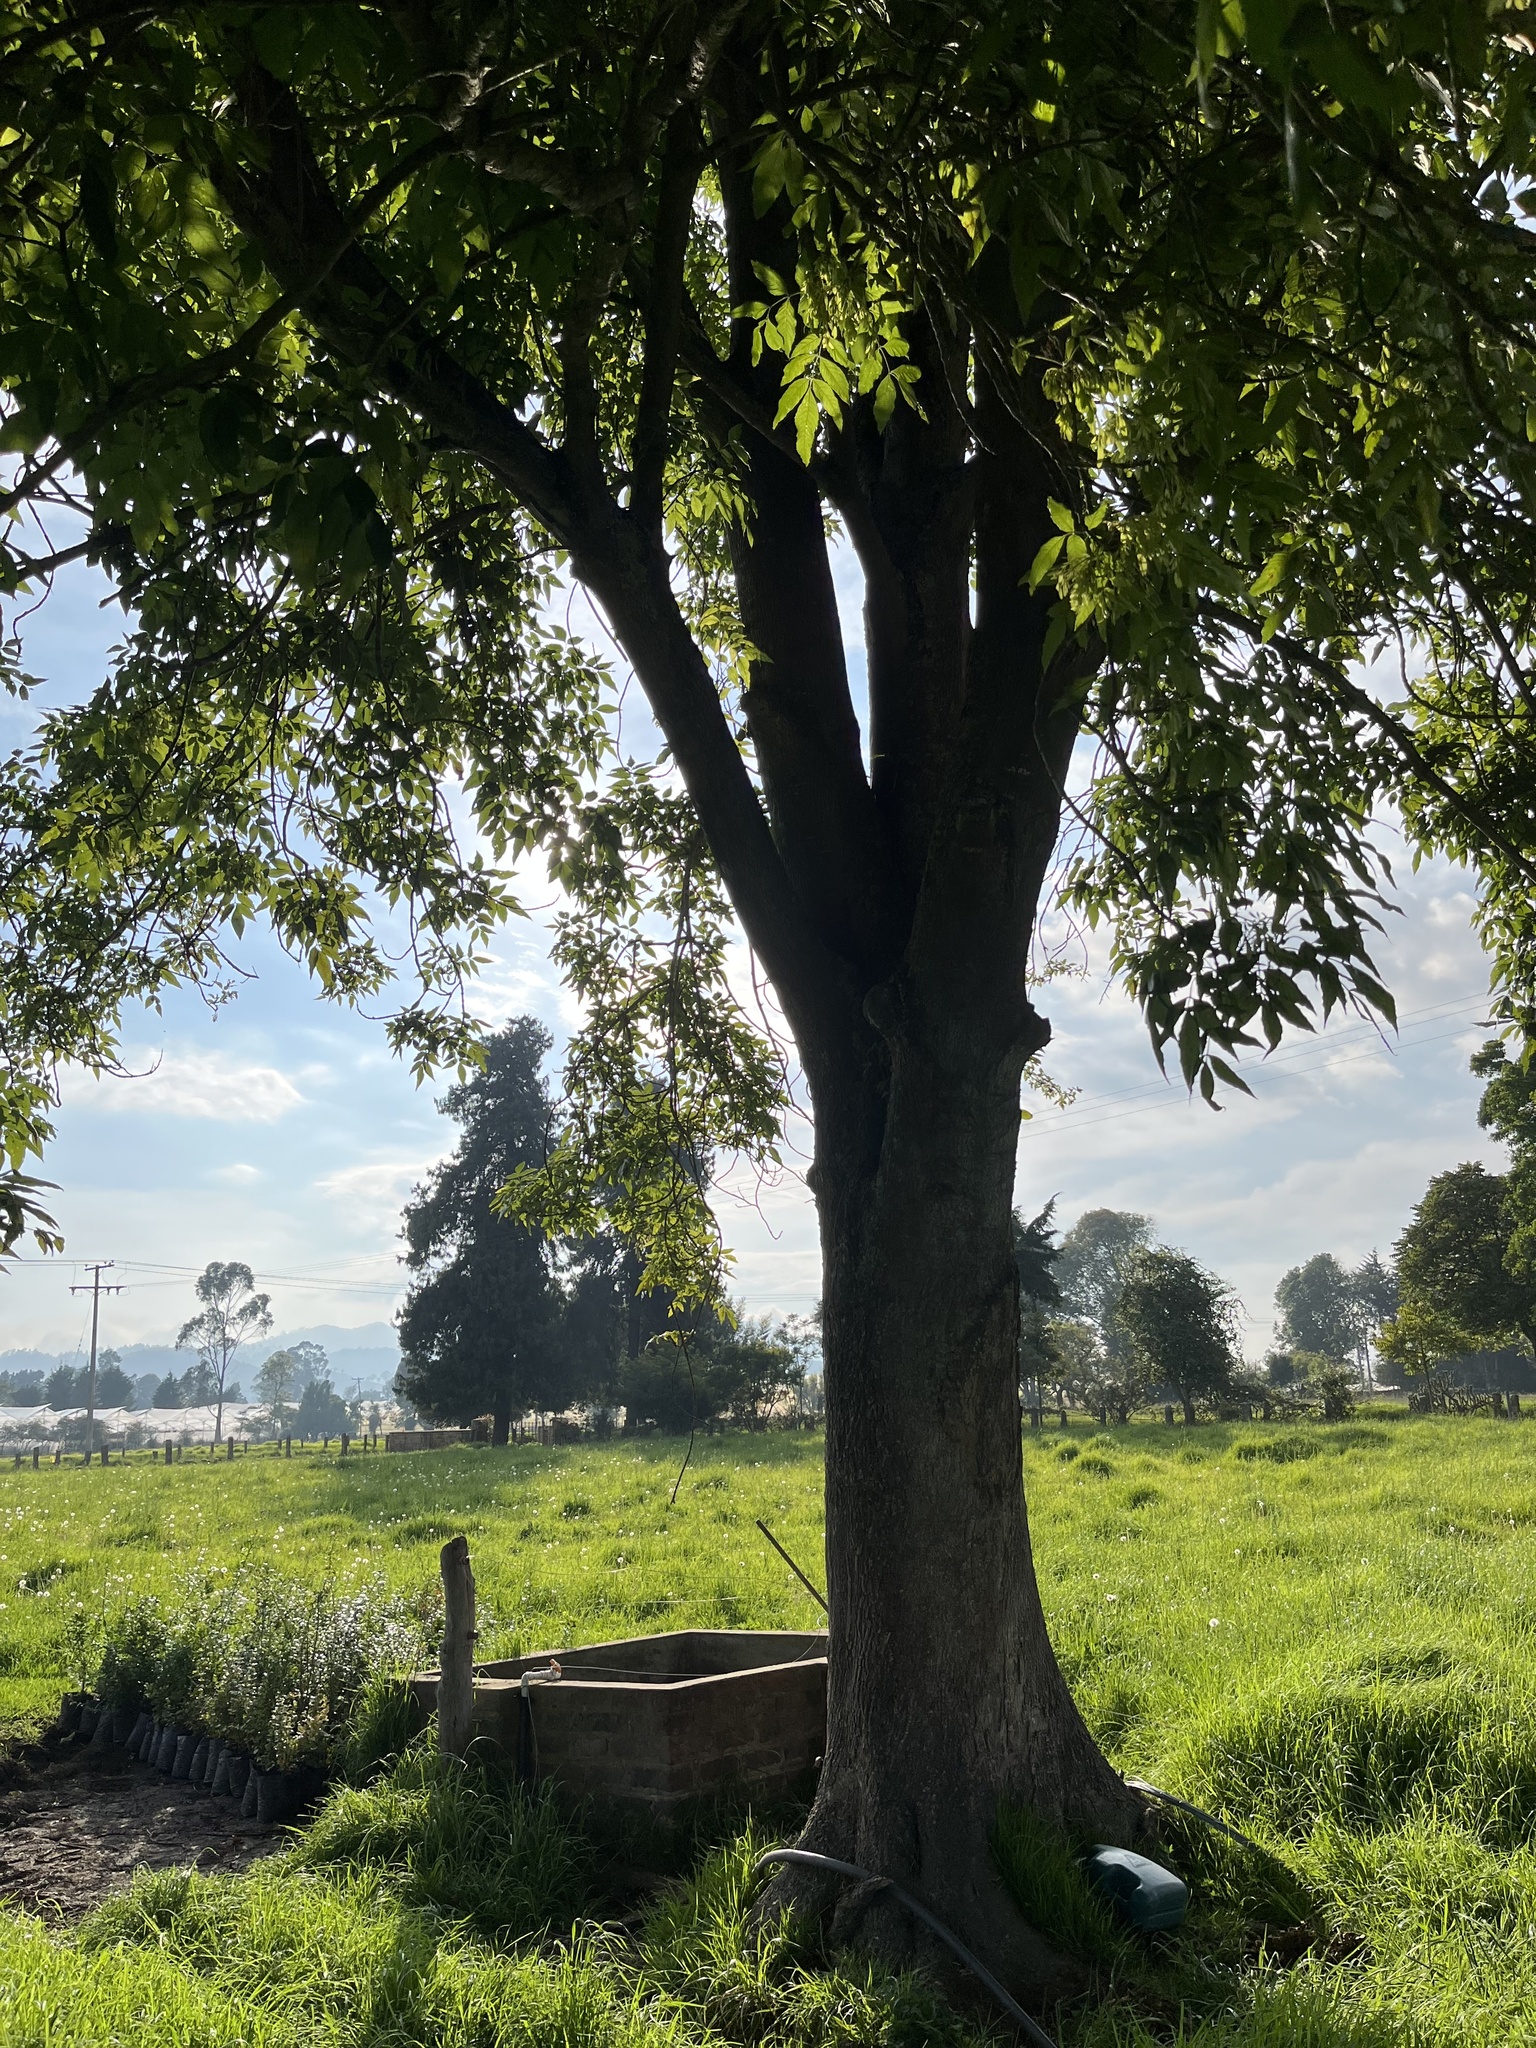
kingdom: Plantae
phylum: Tracheophyta
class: Magnoliopsida
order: Lamiales
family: Oleaceae
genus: Fraxinus
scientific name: Fraxinus uhdei
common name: Shamel ash
